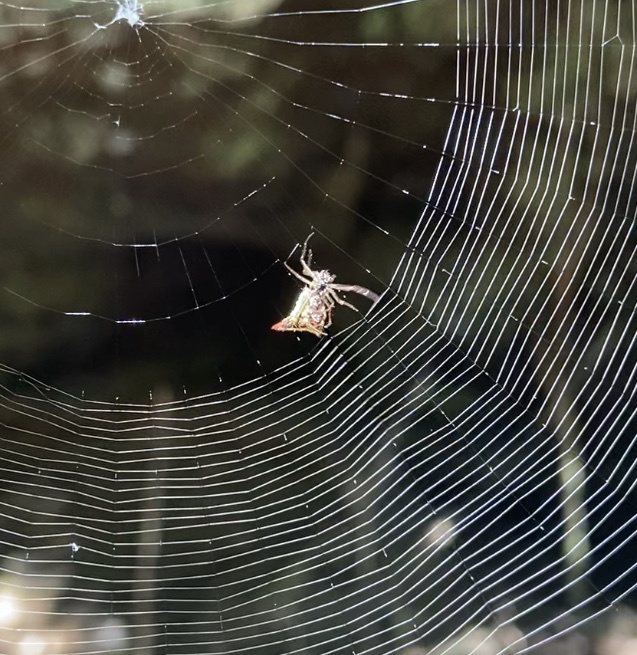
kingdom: Animalia
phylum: Arthropoda
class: Arachnida
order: Araneae
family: Araneidae
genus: Micrathena
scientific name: Micrathena plana
